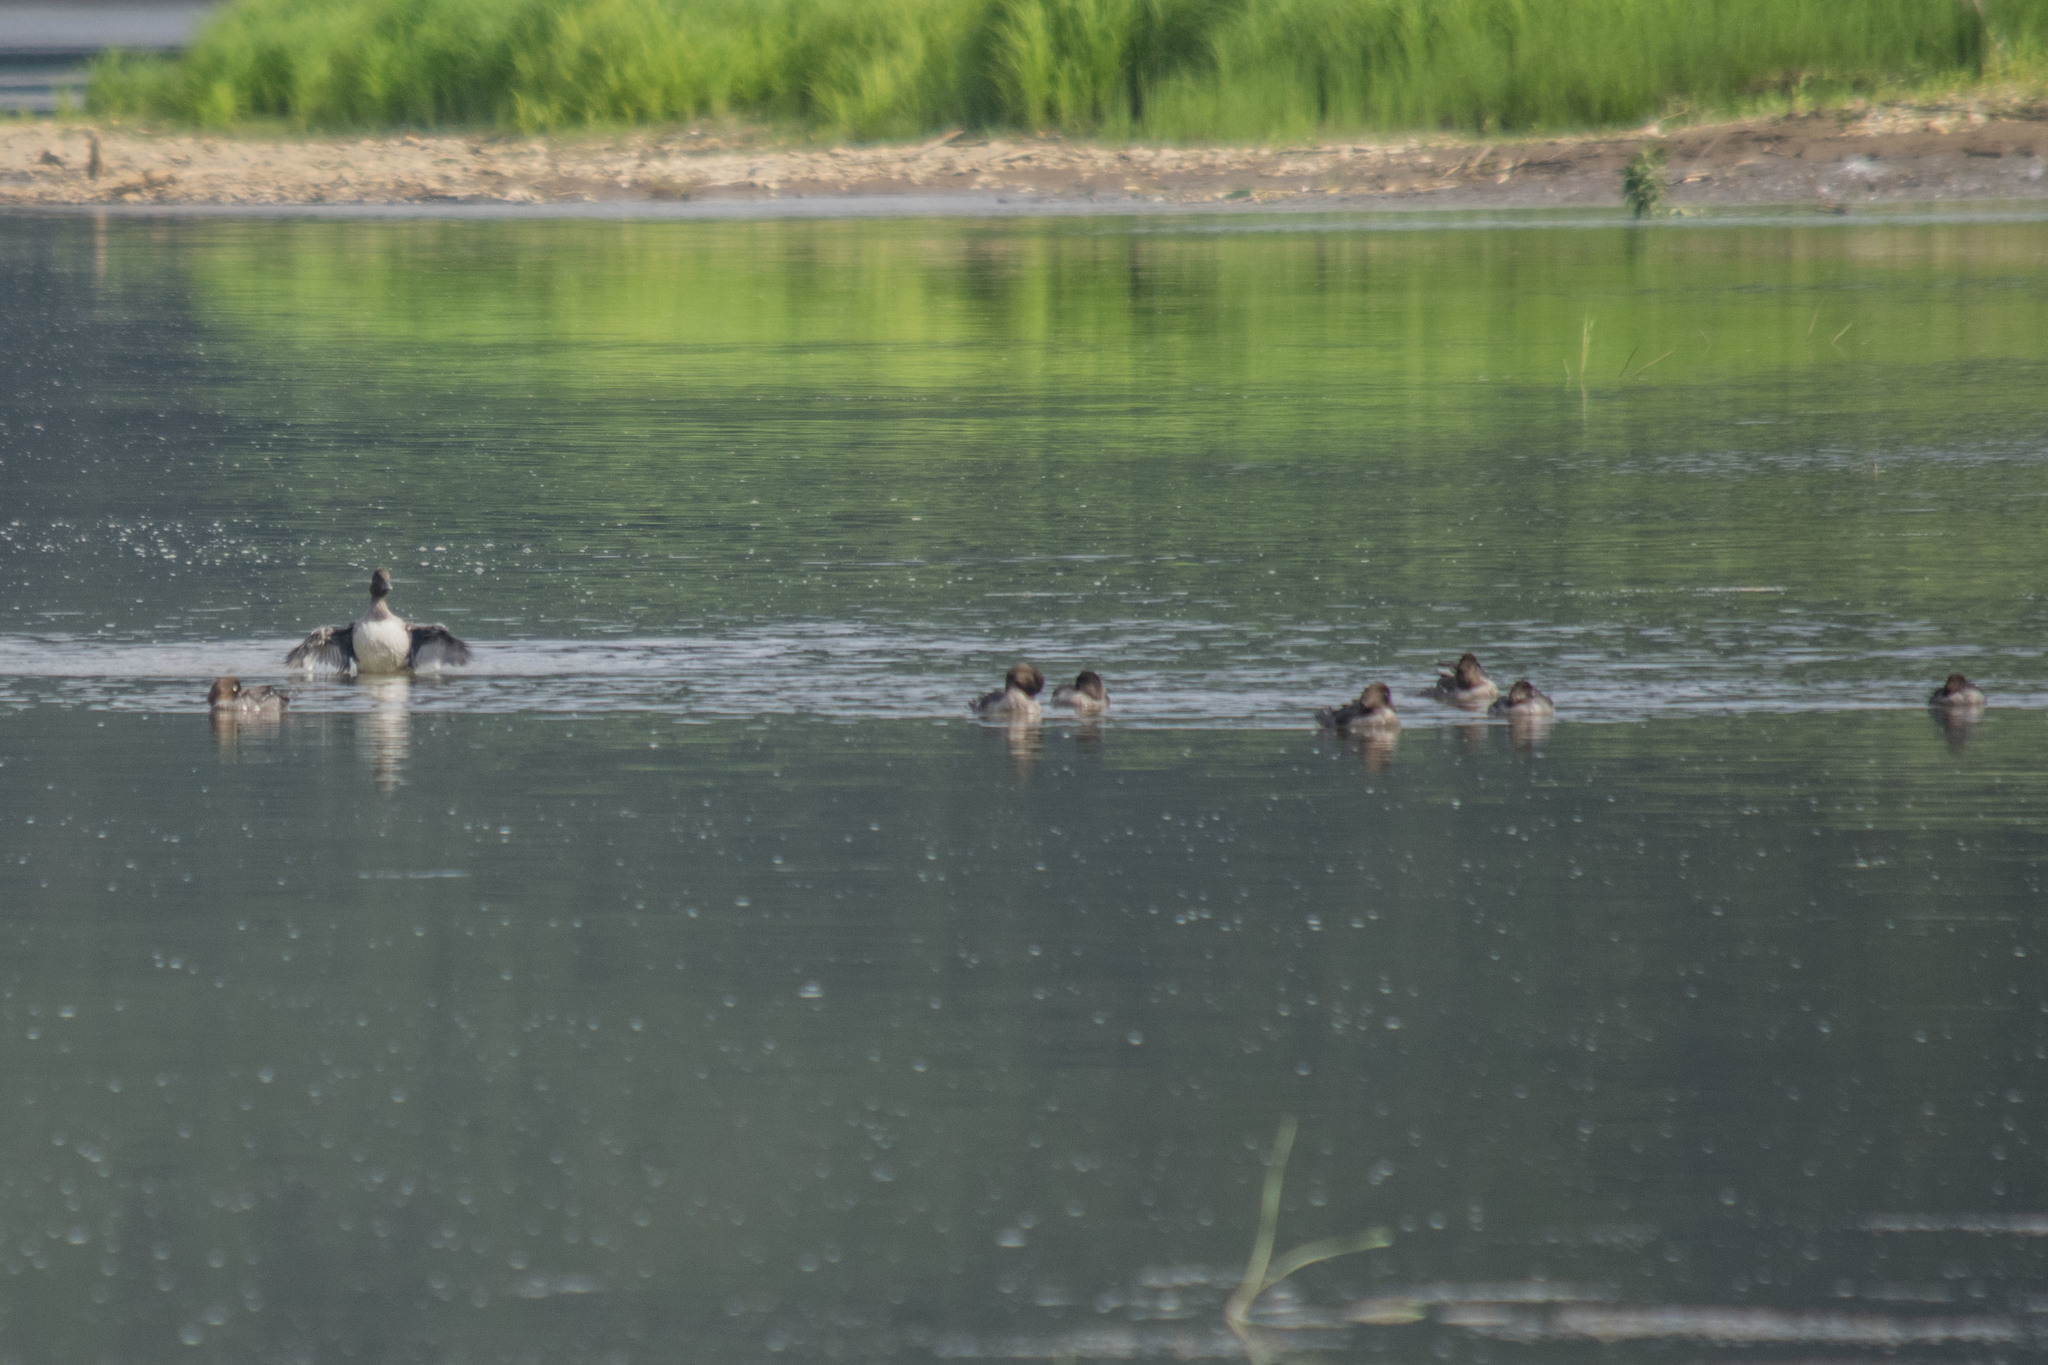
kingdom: Animalia
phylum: Chordata
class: Aves
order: Anseriformes
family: Anatidae
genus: Bucephala
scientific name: Bucephala clangula
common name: Common goldeneye
